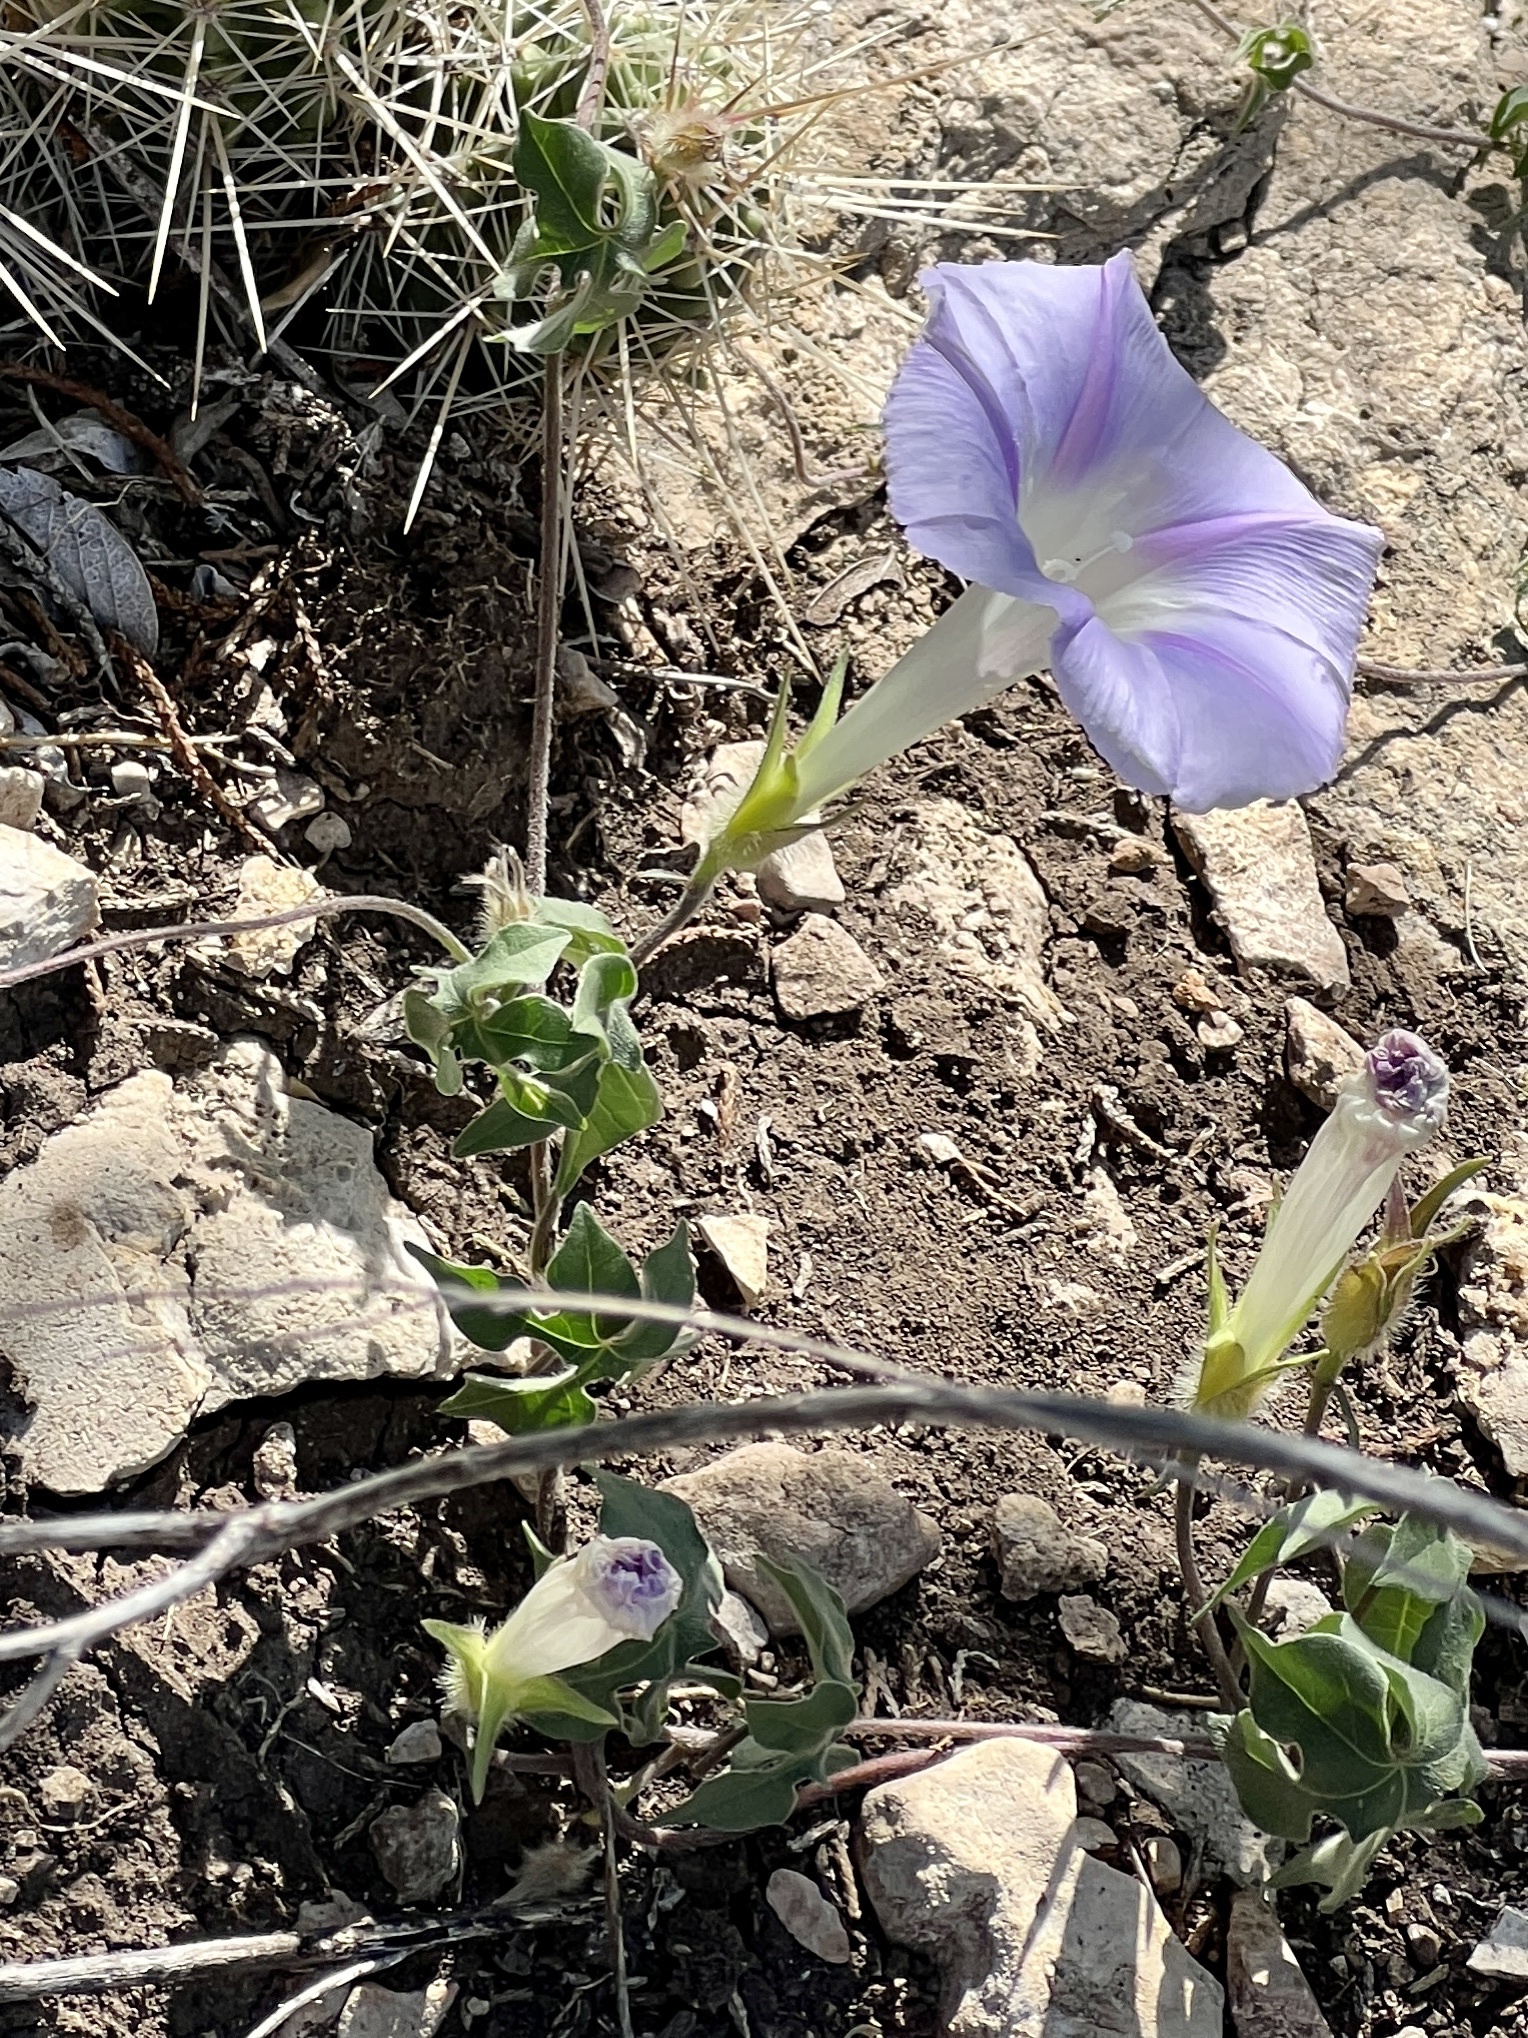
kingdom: Plantae
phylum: Tracheophyta
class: Magnoliopsida
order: Solanales
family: Convolvulaceae
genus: Ipomoea
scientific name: Ipomoea lindheimeri
